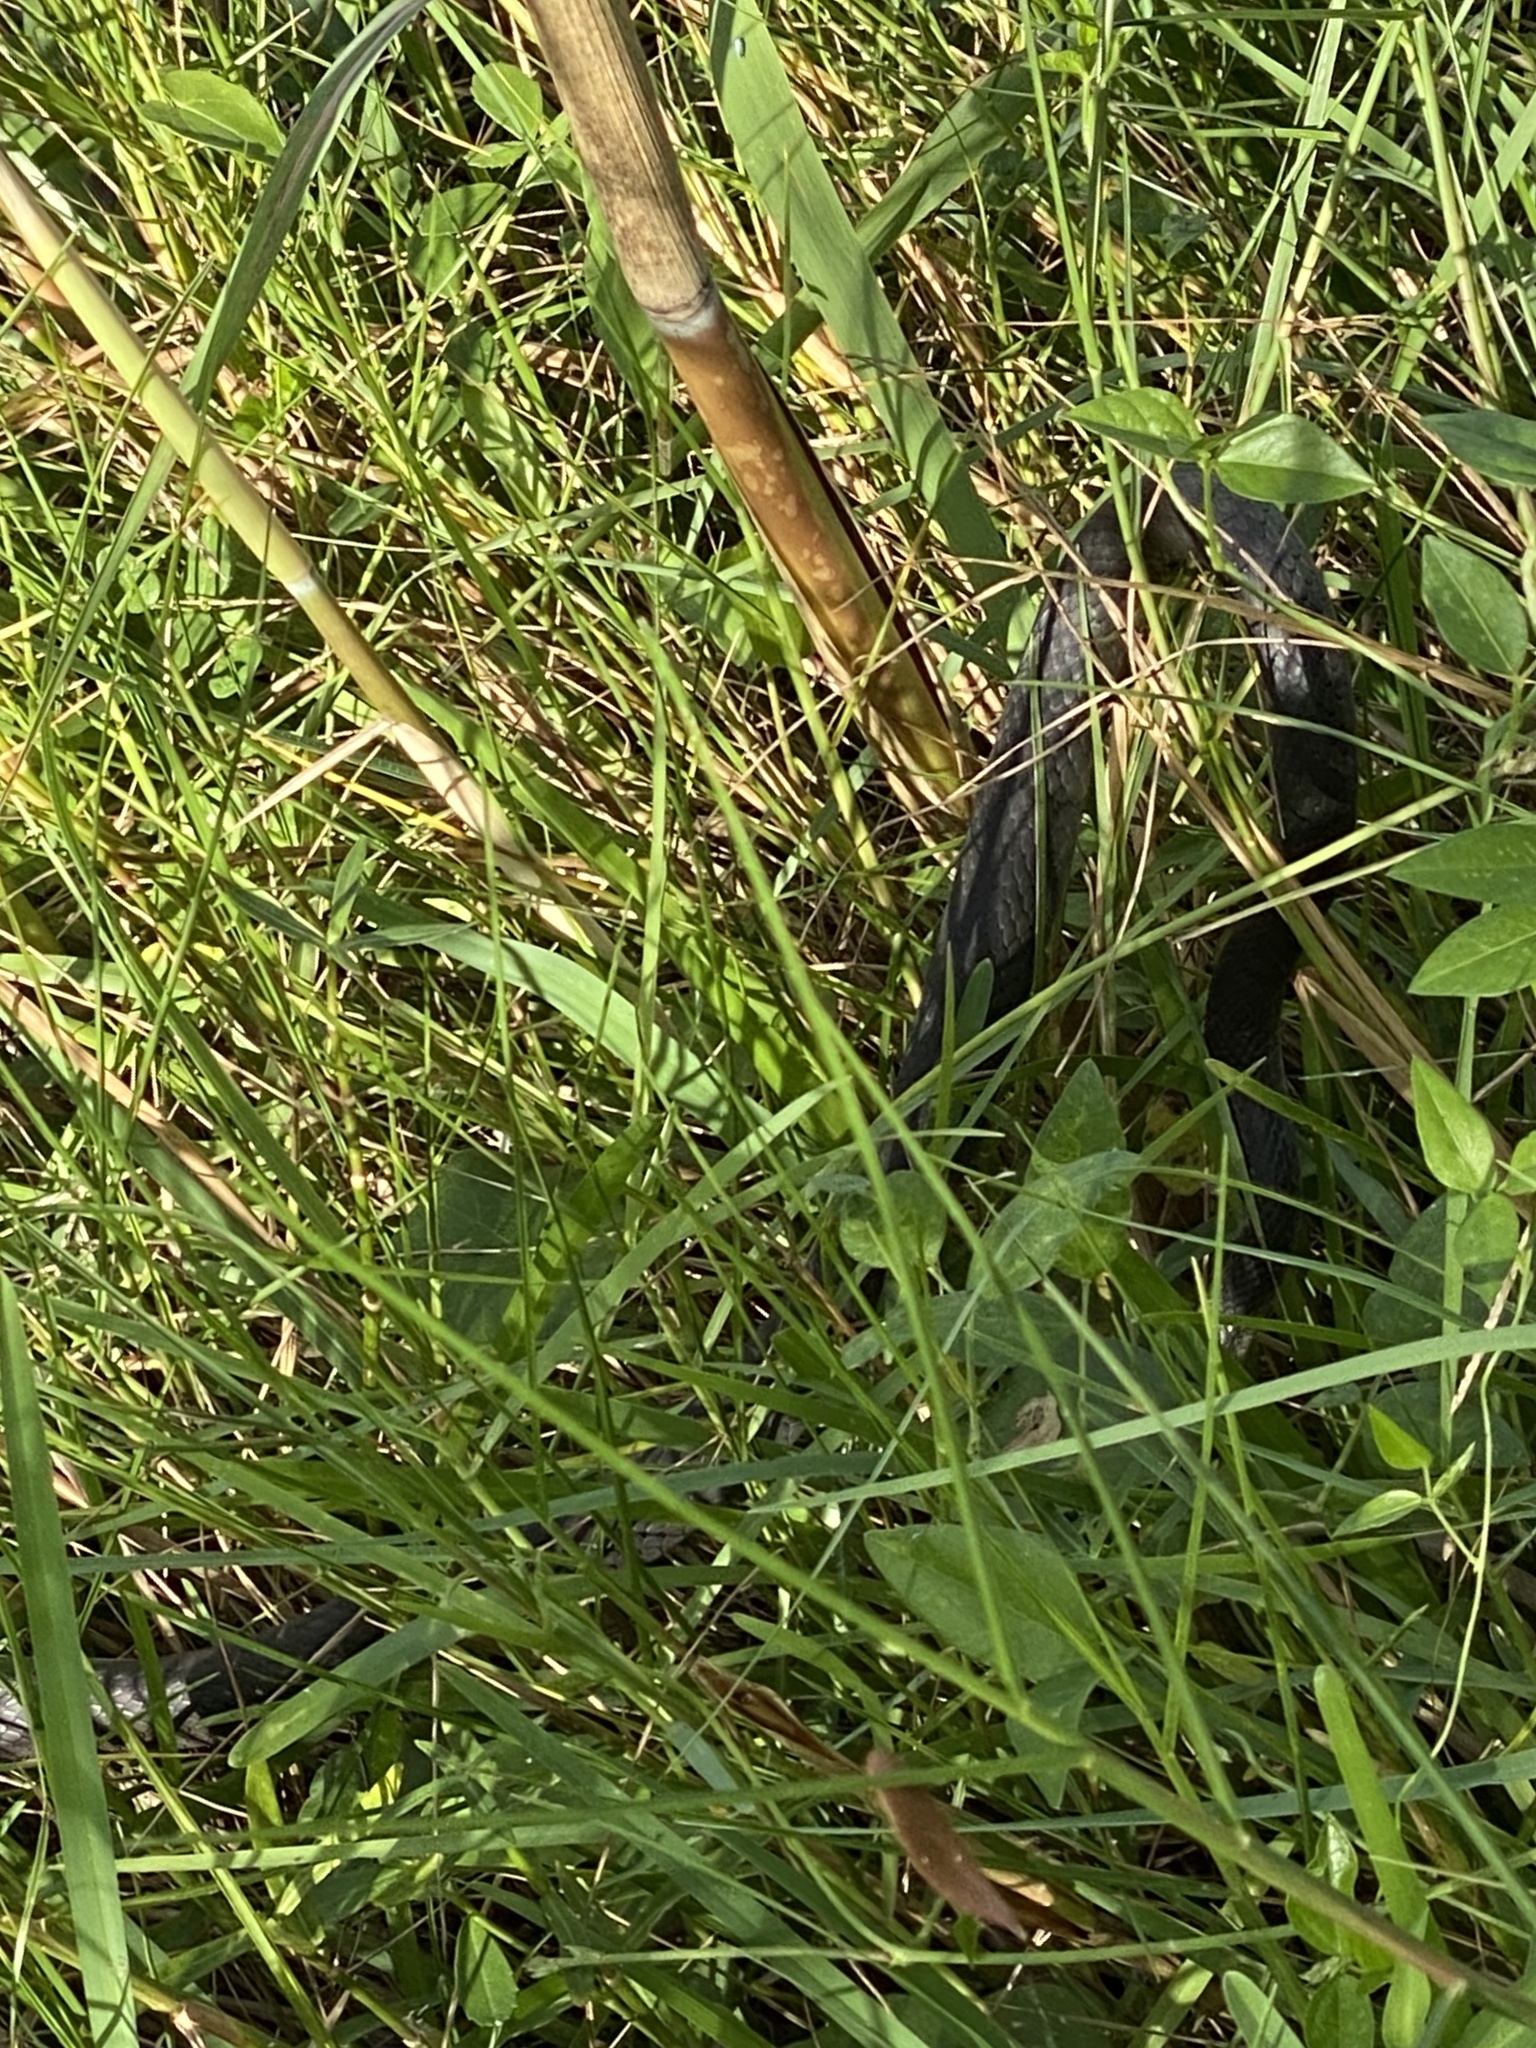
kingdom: Animalia
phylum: Chordata
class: Squamata
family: Colubridae
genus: Coluber
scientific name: Coluber constrictor
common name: Eastern racer
